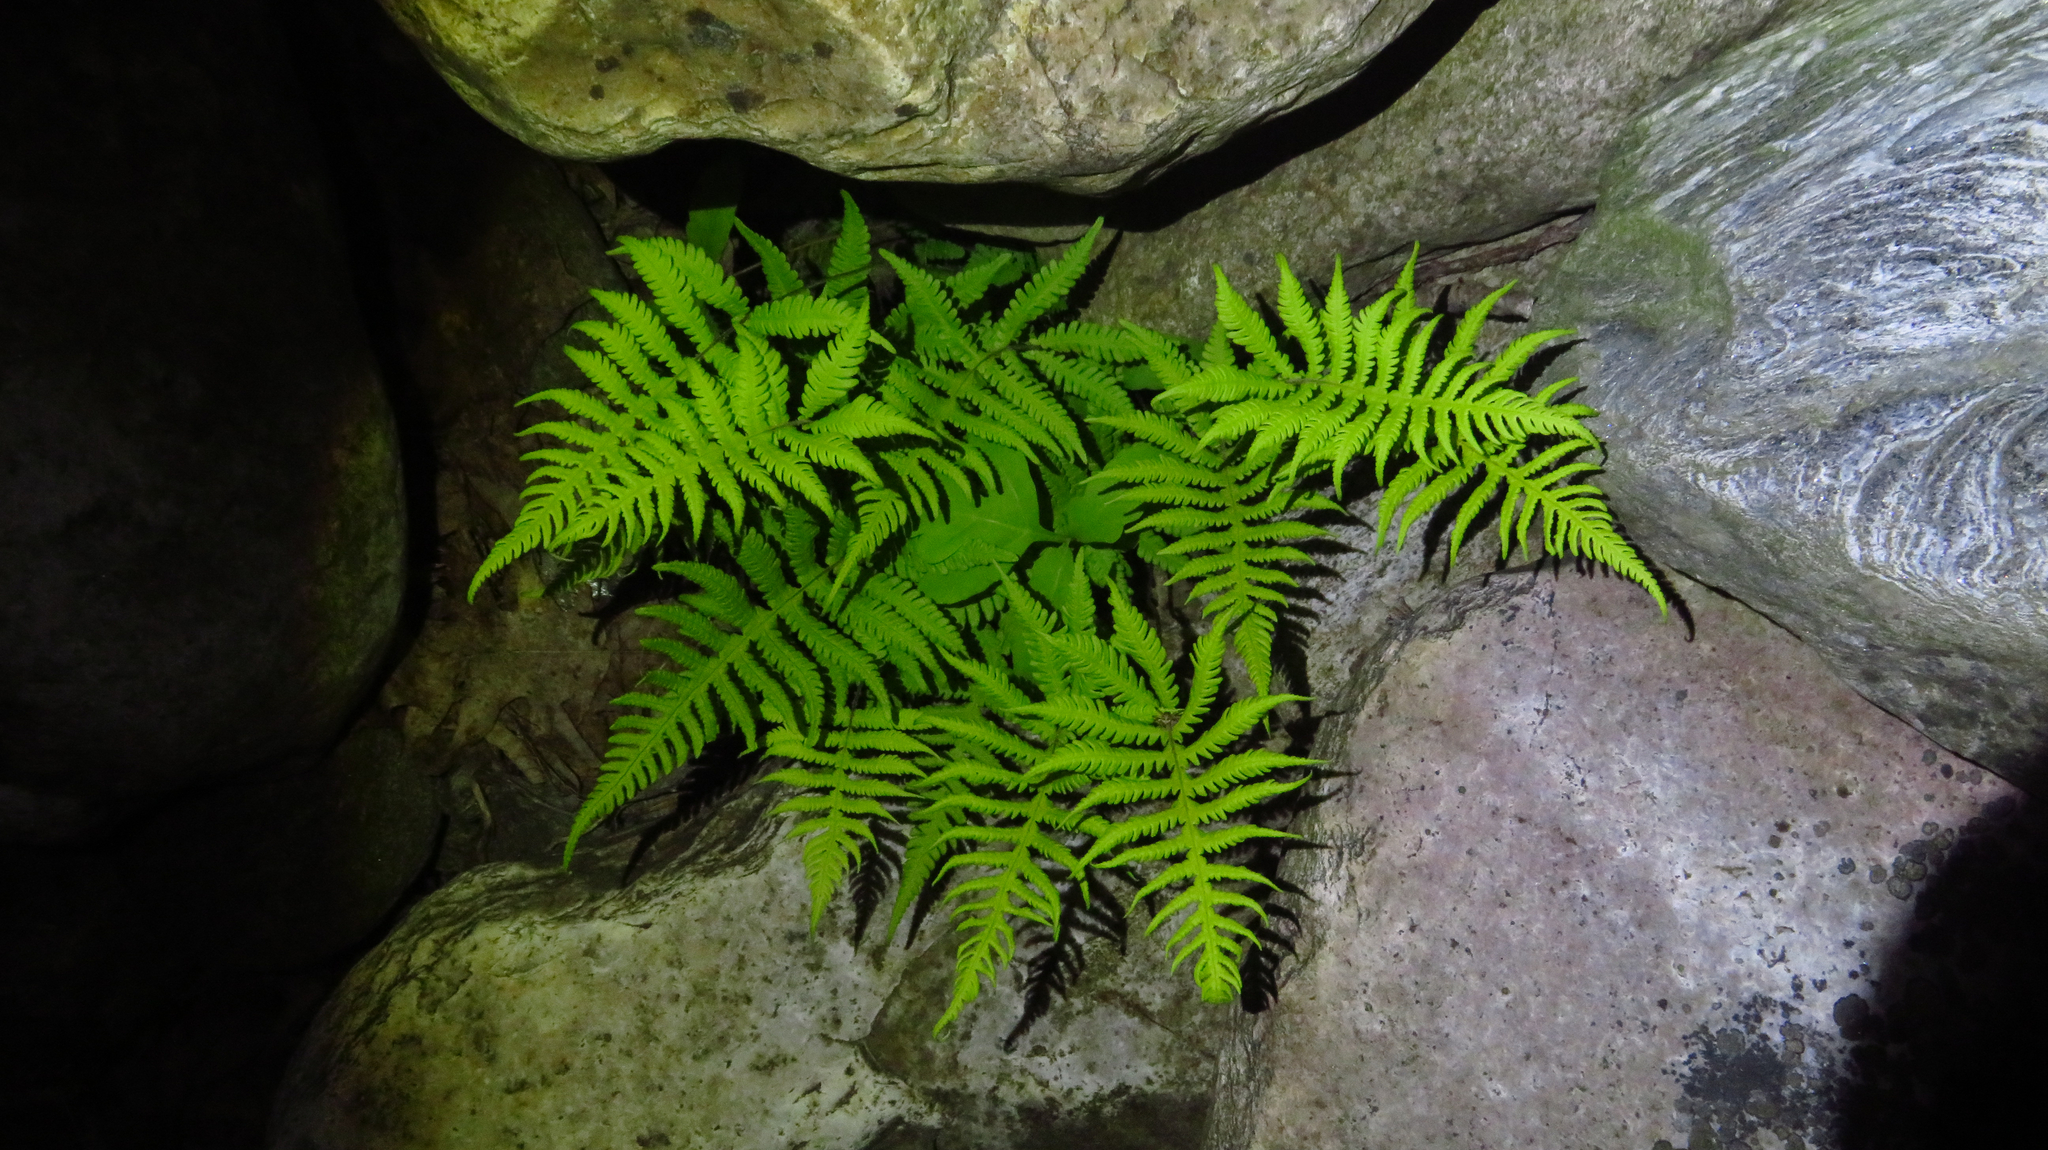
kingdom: Plantae
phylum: Tracheophyta
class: Polypodiopsida
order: Polypodiales
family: Thelypteridaceae
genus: Phegopteris
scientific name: Phegopteris connectilis
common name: Beech fern
